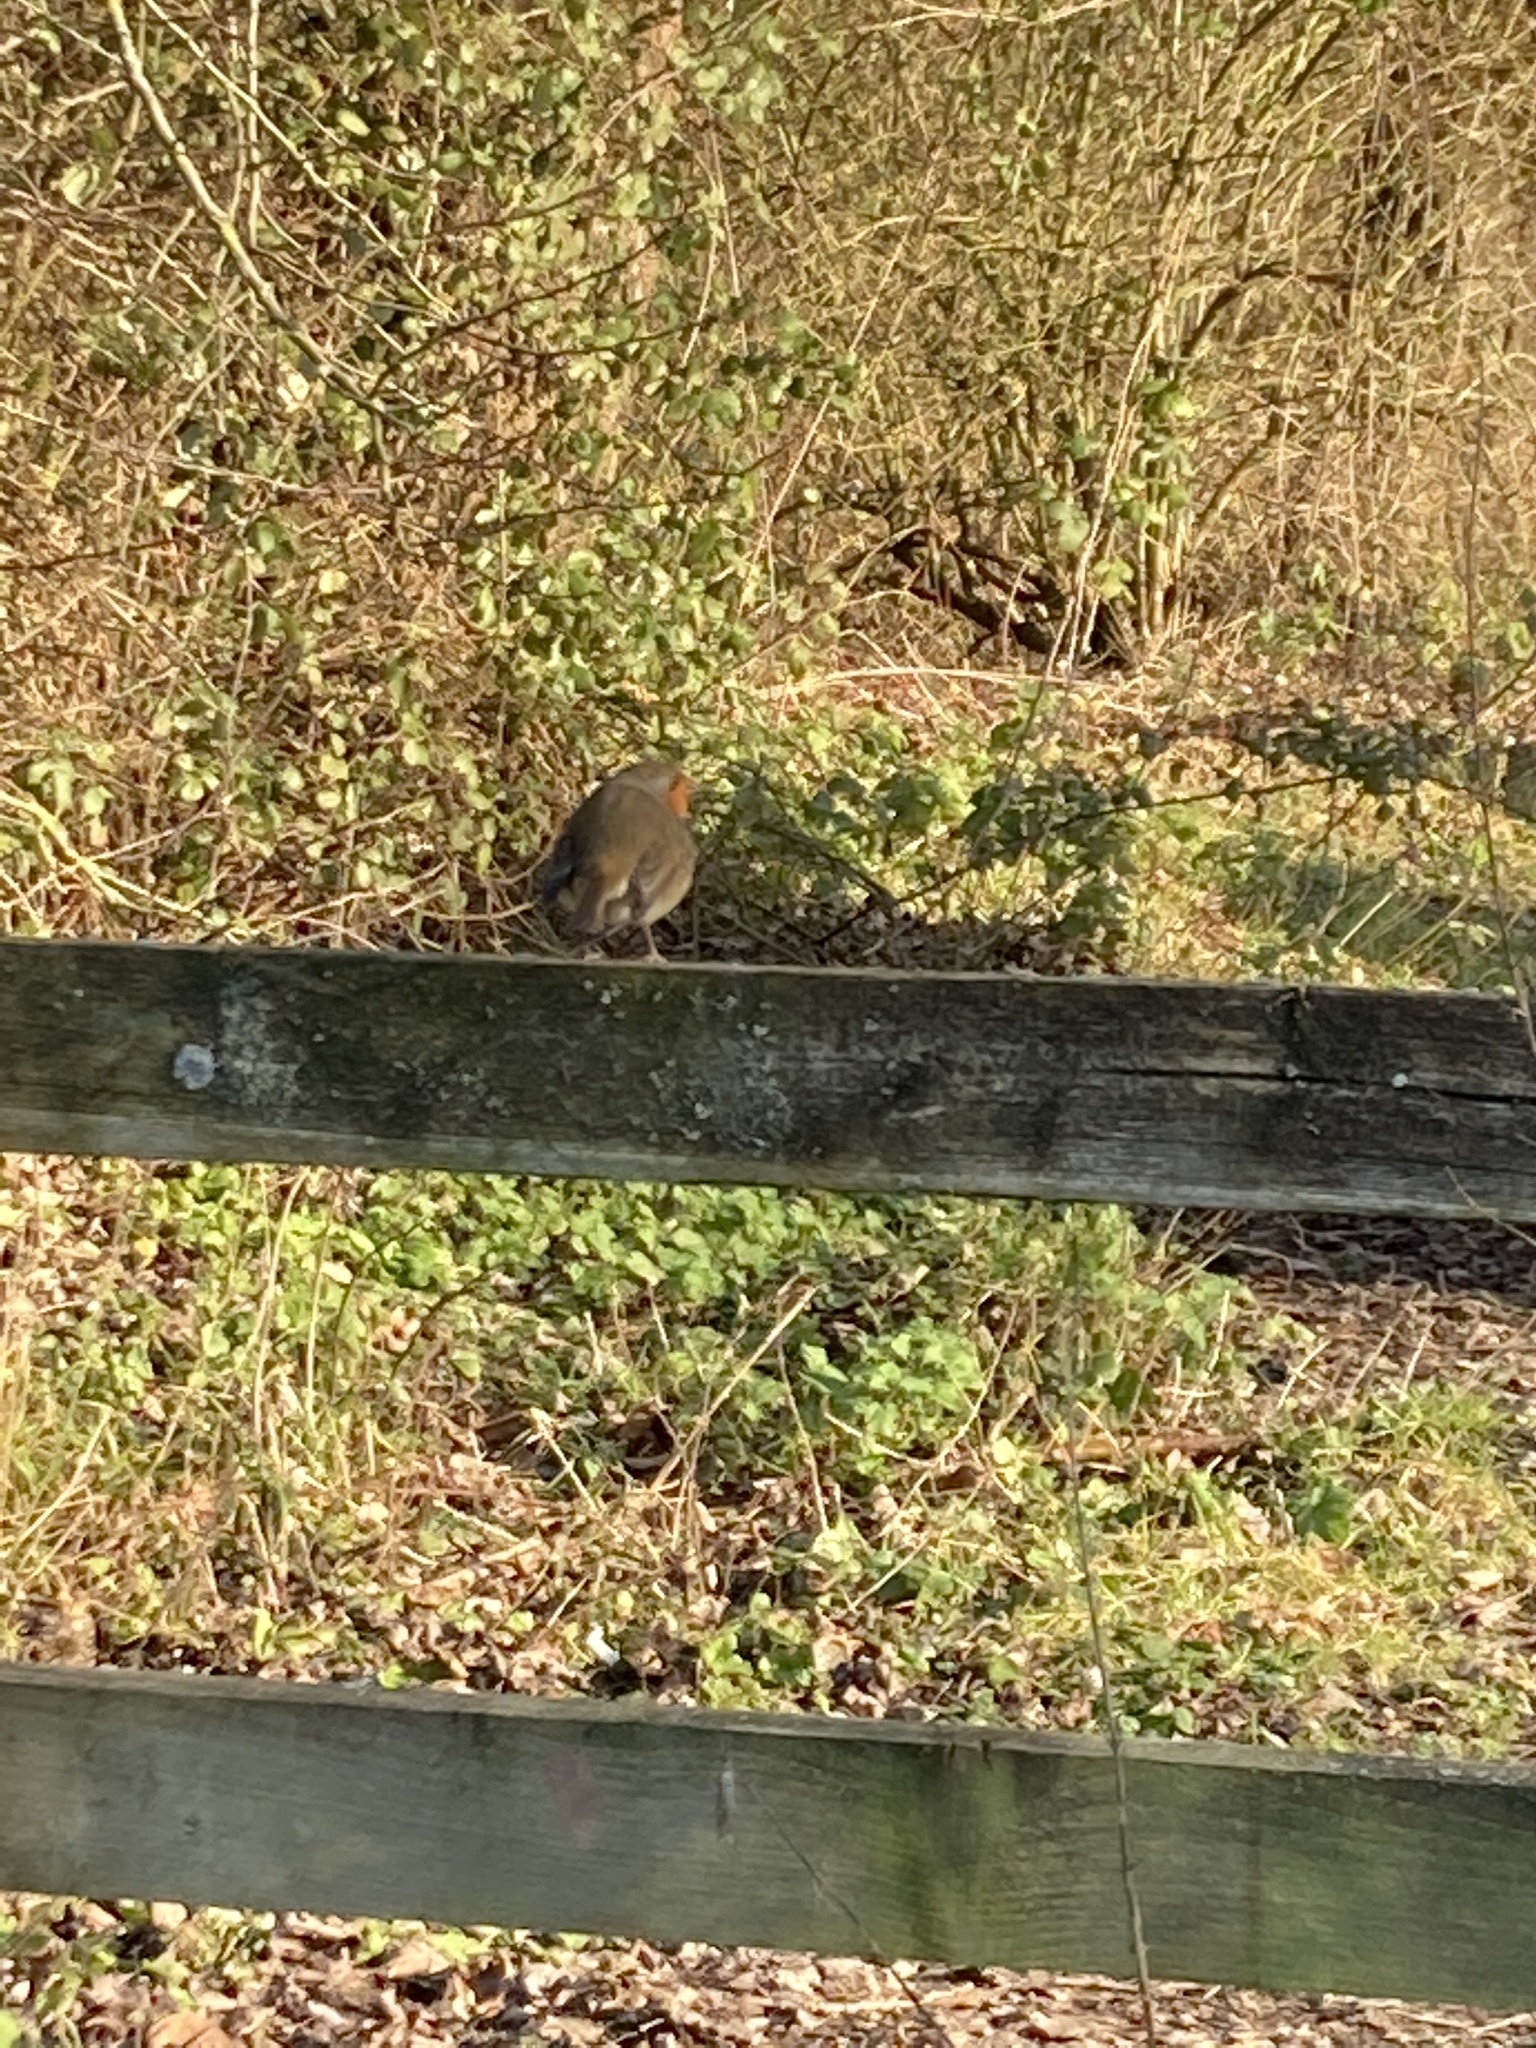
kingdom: Animalia
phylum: Chordata
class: Aves
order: Passeriformes
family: Muscicapidae
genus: Erithacus
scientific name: Erithacus rubecula
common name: European robin
